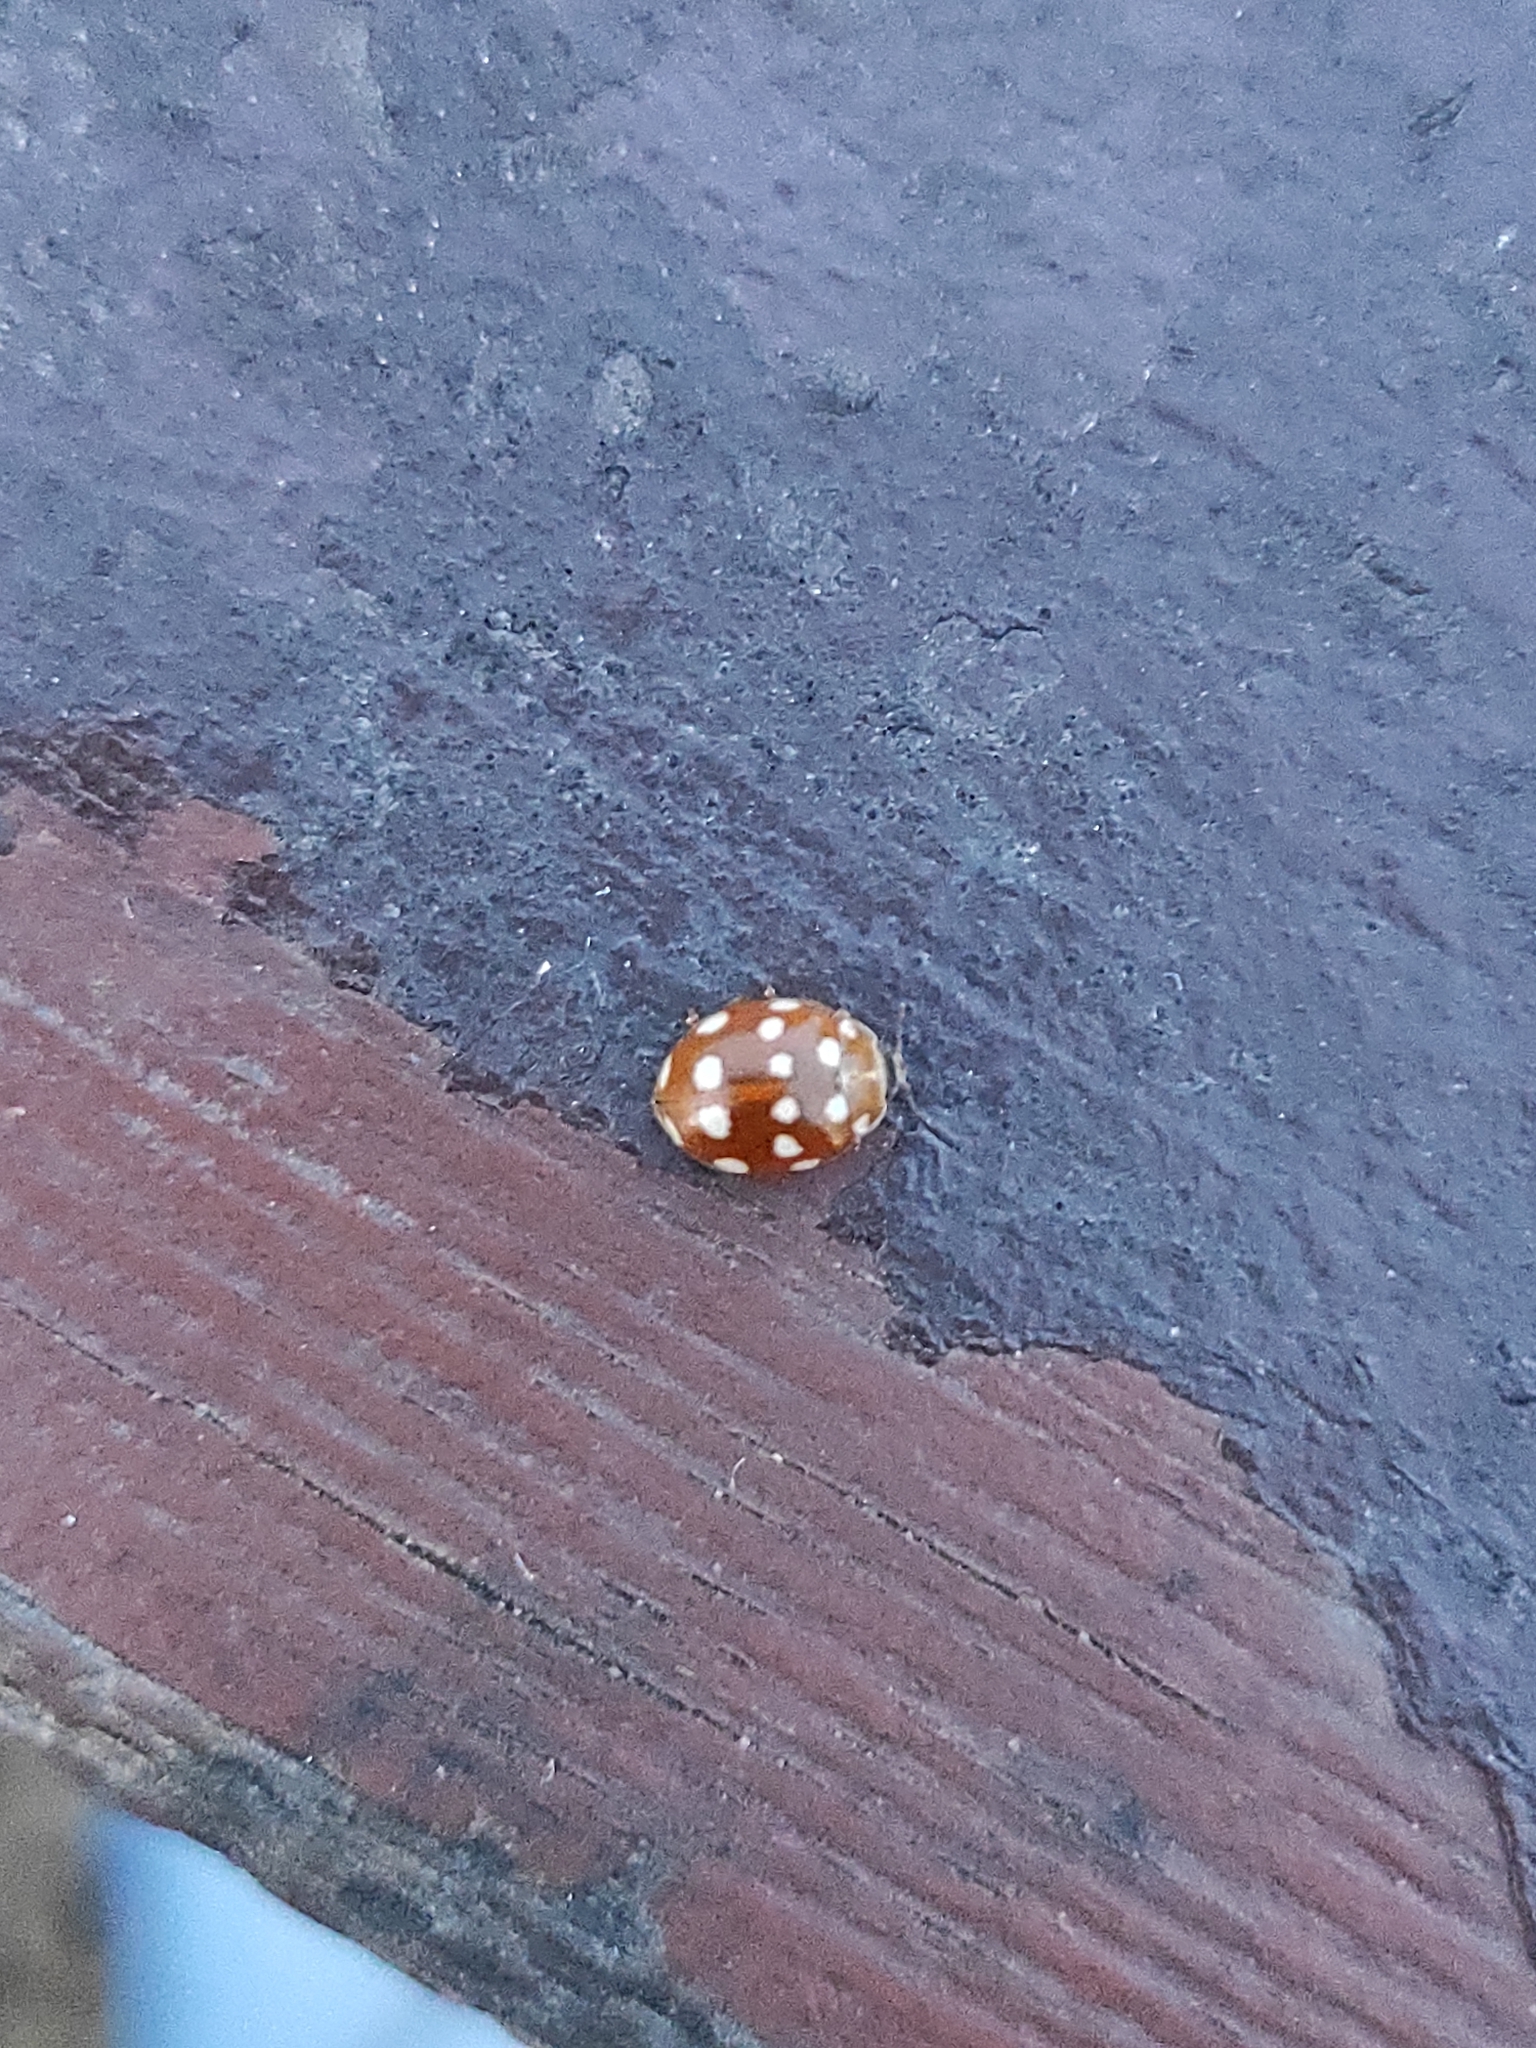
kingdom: Animalia
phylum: Arthropoda
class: Insecta
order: Coleoptera
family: Coccinellidae
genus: Calvia
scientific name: Calvia quatuordecimguttata
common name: Cream-spot ladybird
